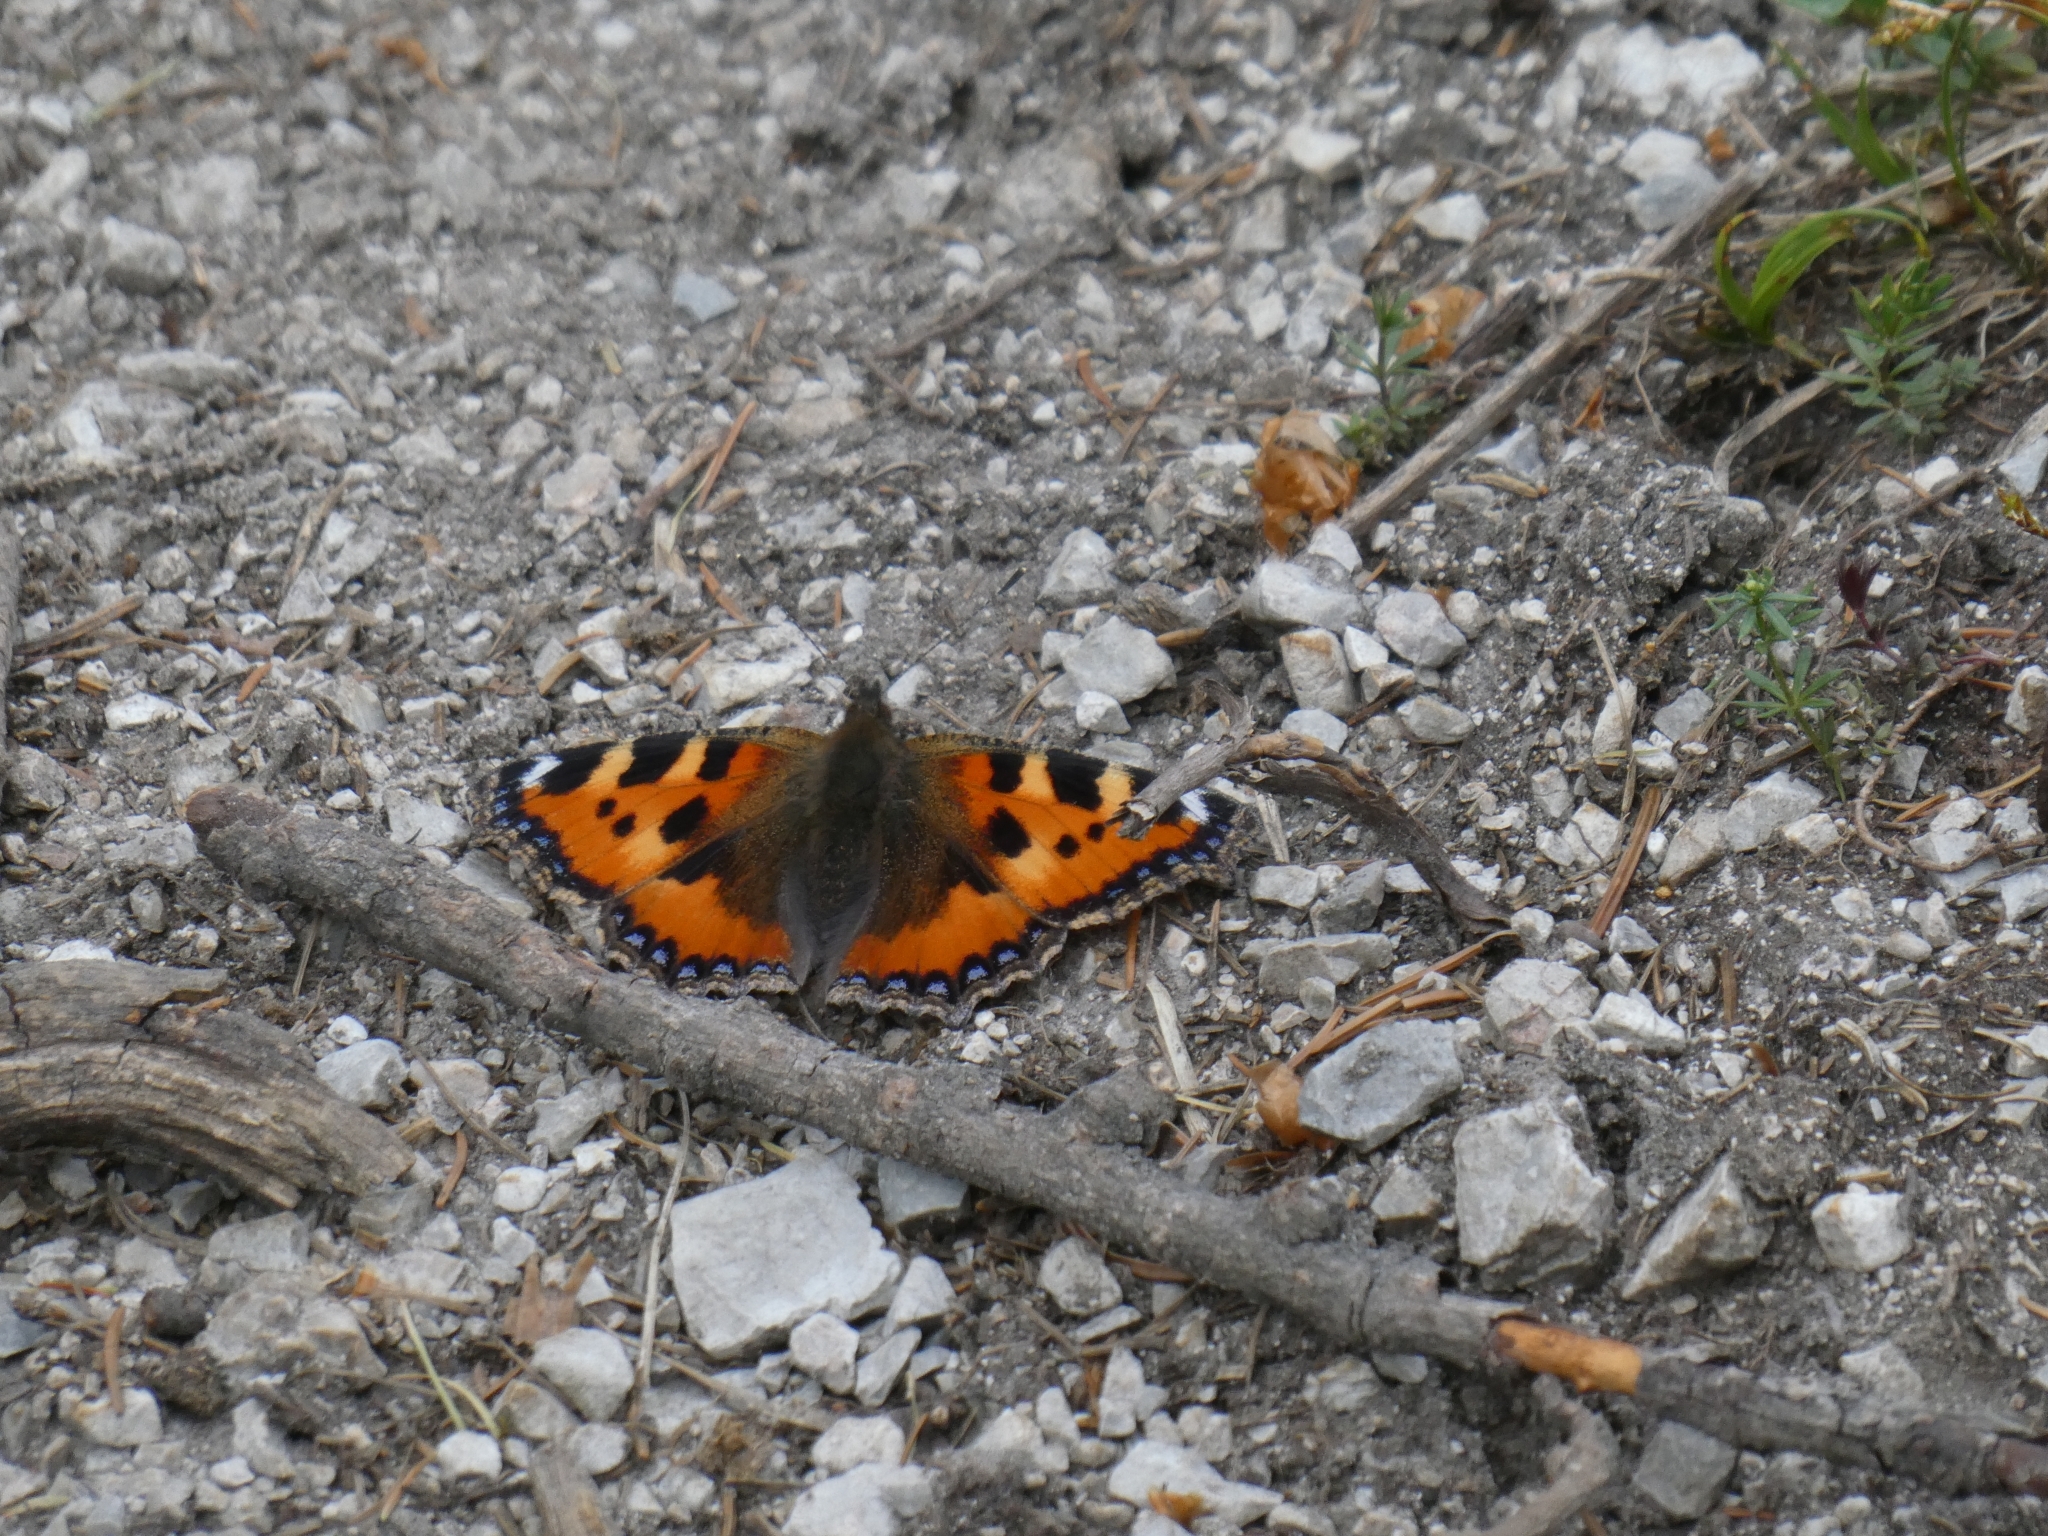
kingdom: Animalia
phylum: Arthropoda
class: Insecta
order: Lepidoptera
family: Nymphalidae
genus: Aglais
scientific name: Aglais urticae
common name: Small tortoiseshell
